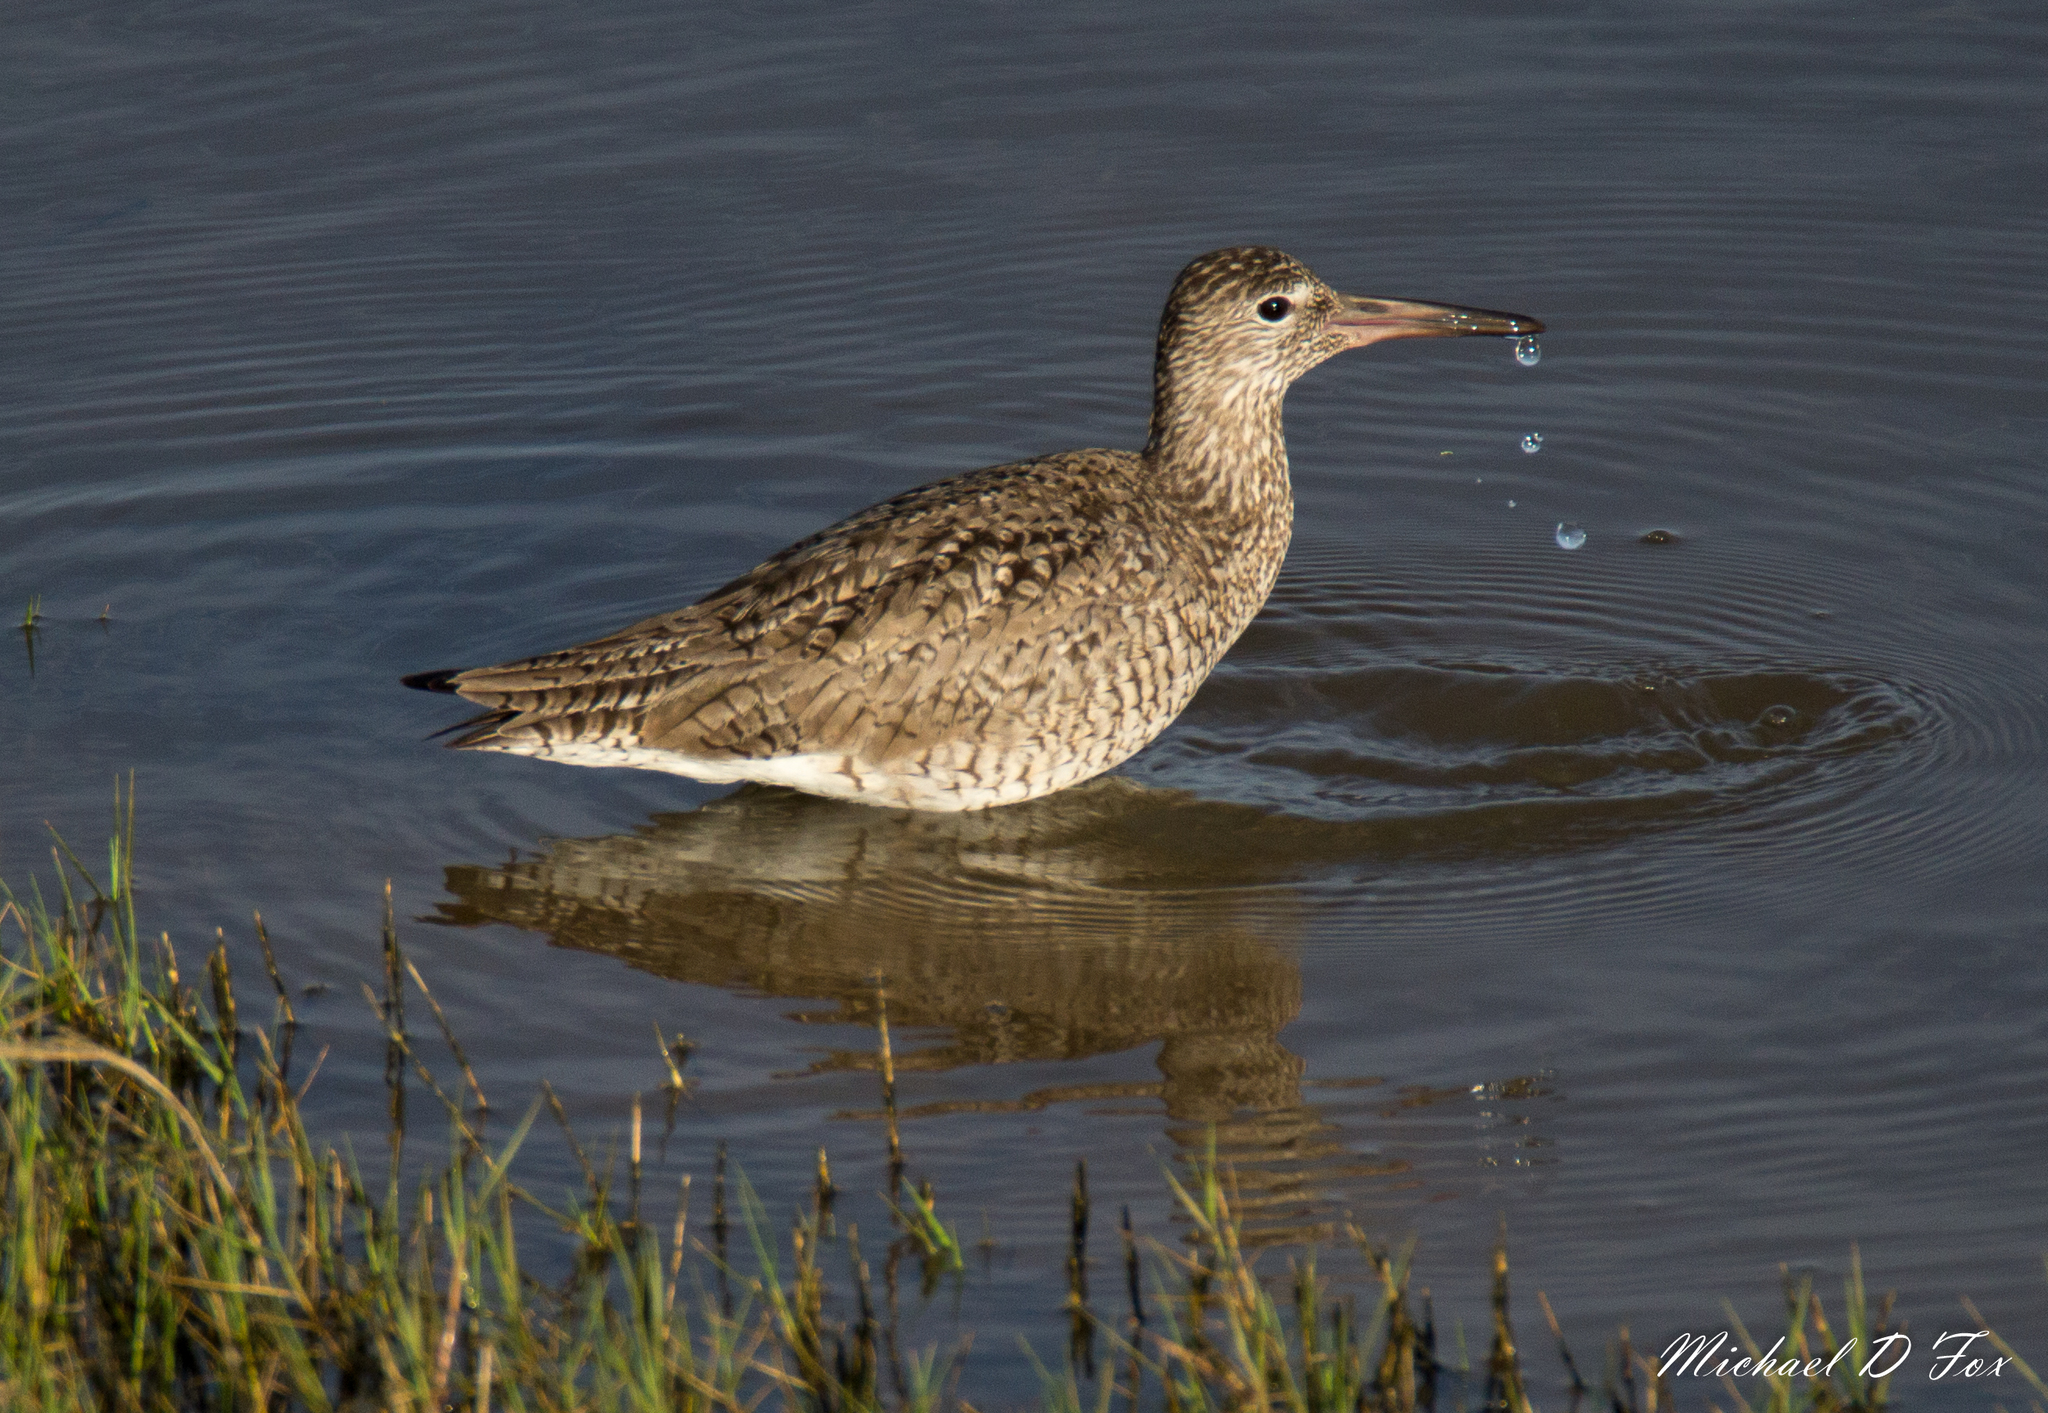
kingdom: Animalia
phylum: Chordata
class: Aves
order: Charadriiformes
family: Scolopacidae
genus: Tringa
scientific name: Tringa semipalmata
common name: Willet
